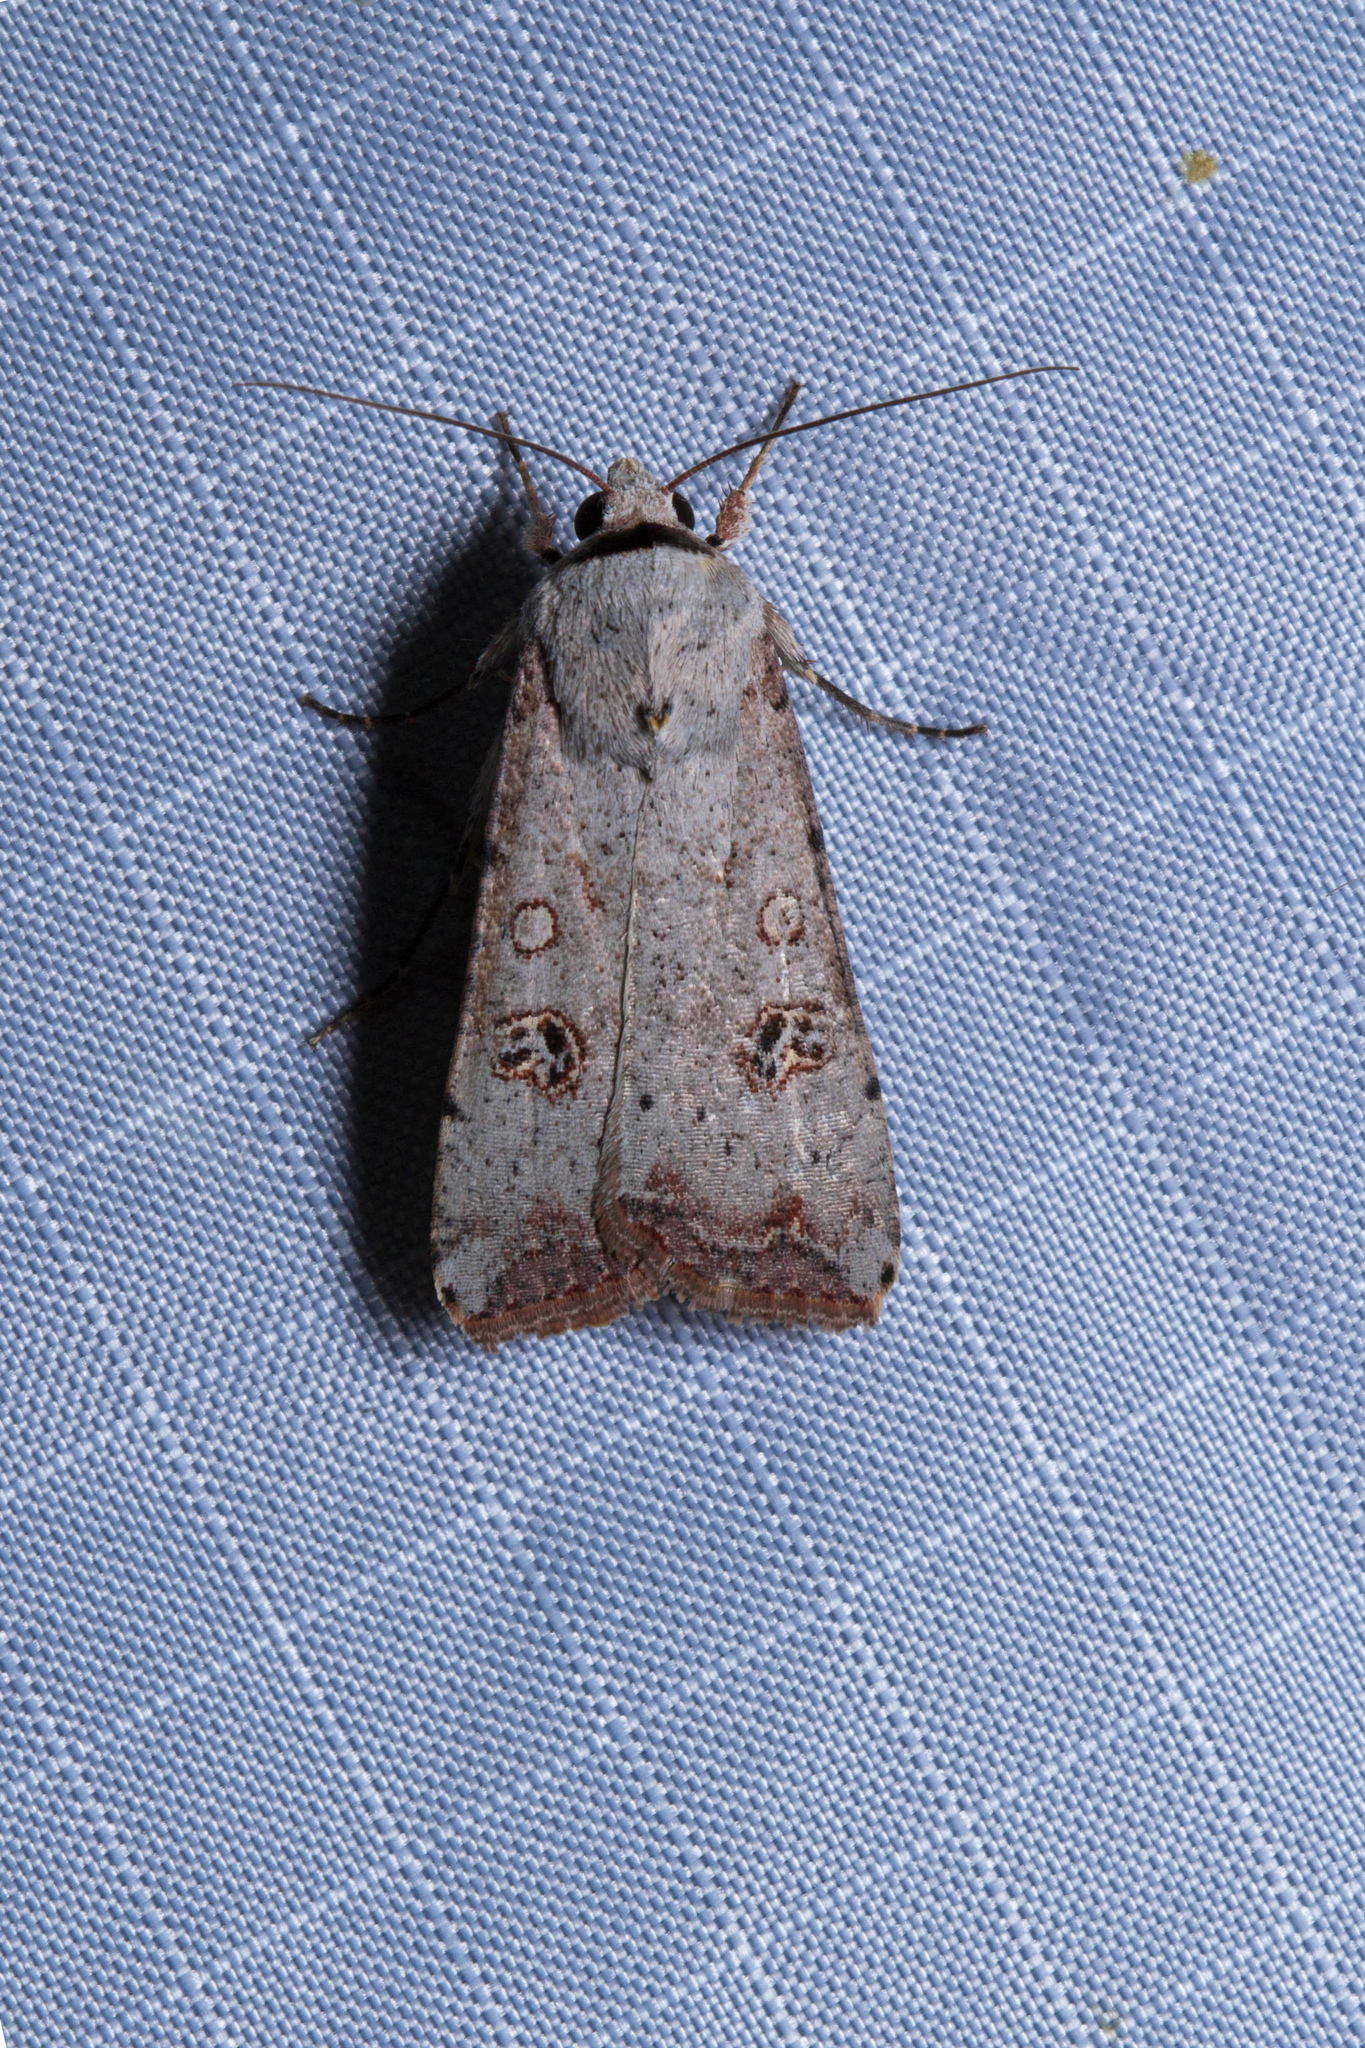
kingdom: Animalia
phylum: Arthropoda
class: Insecta
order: Lepidoptera
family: Noctuidae
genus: Anicla
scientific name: Anicla infecta
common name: Green cutworm
